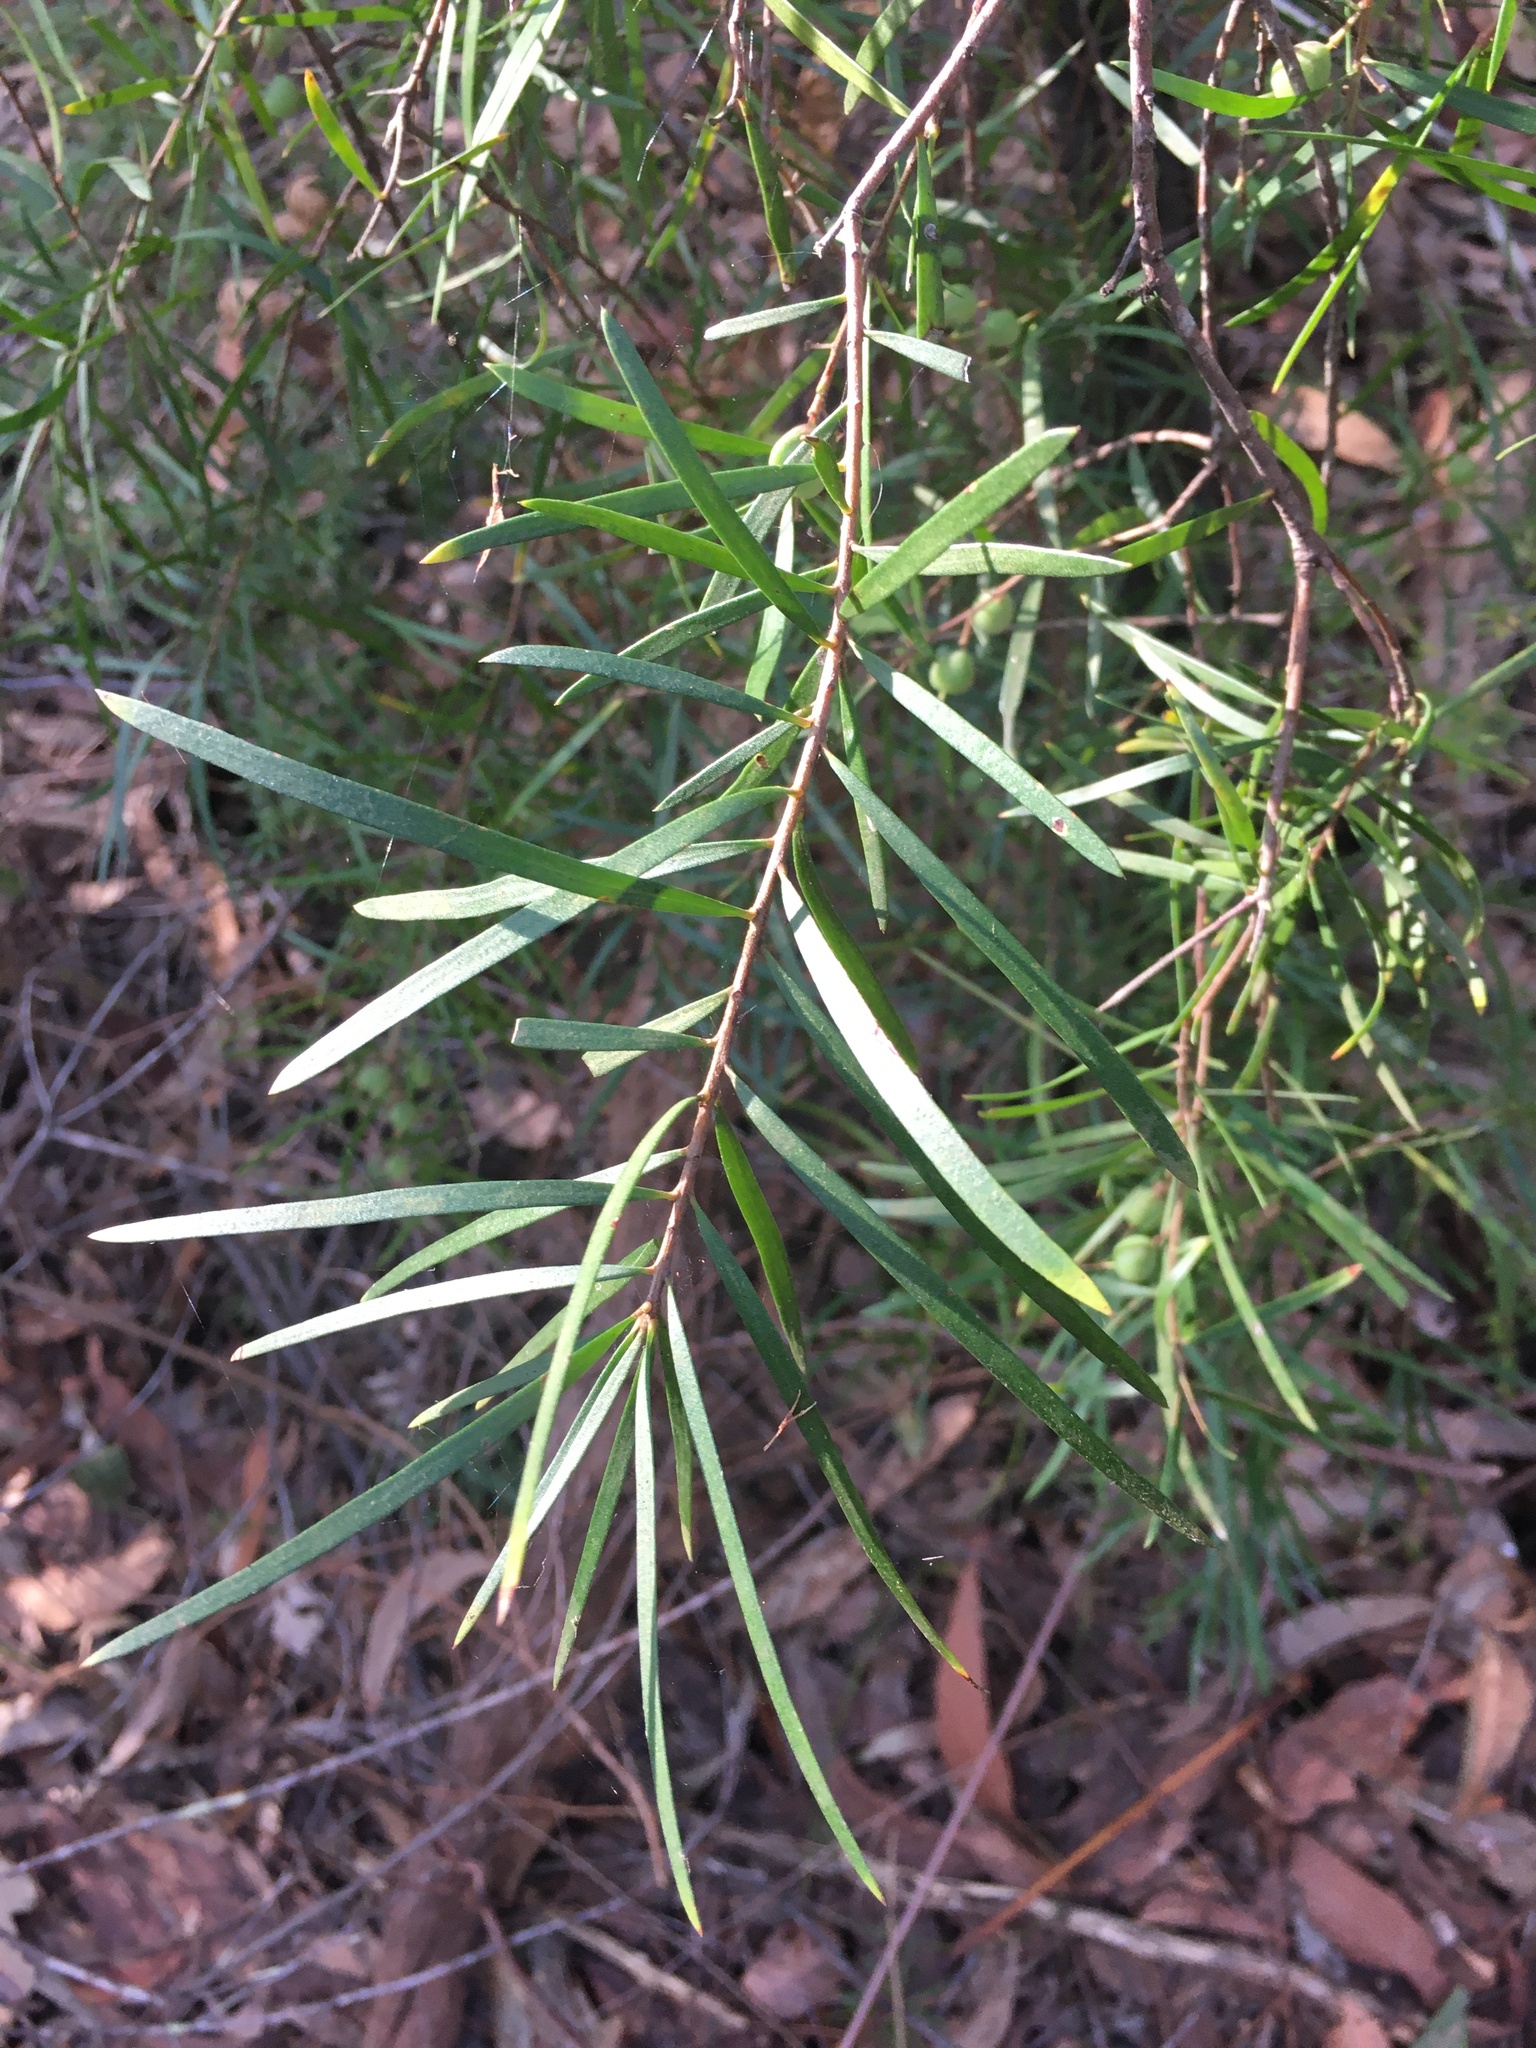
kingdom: Plantae
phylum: Tracheophyta
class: Magnoliopsida
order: Proteales
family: Proteaceae
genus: Persoonia
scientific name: Persoonia linearis
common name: Narrow-leaf geebung
